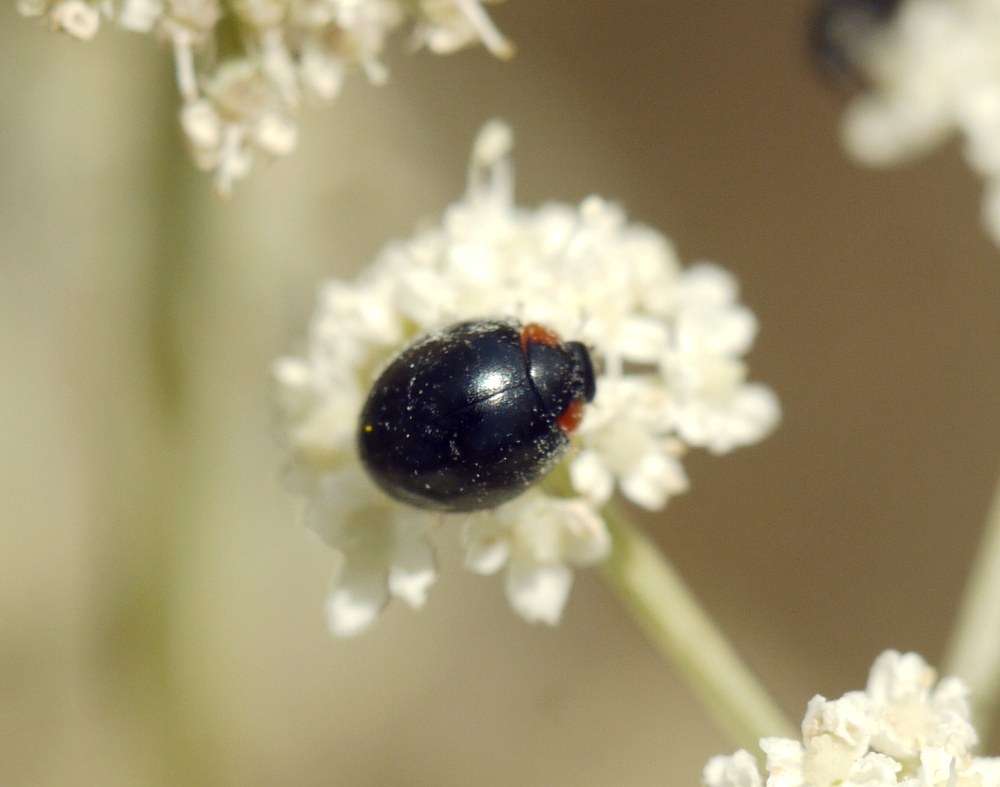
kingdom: Animalia
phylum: Arthropoda
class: Insecta
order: Coleoptera
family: Coccinellidae
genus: Parexochomus
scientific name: Parexochomus nigromaculatus
